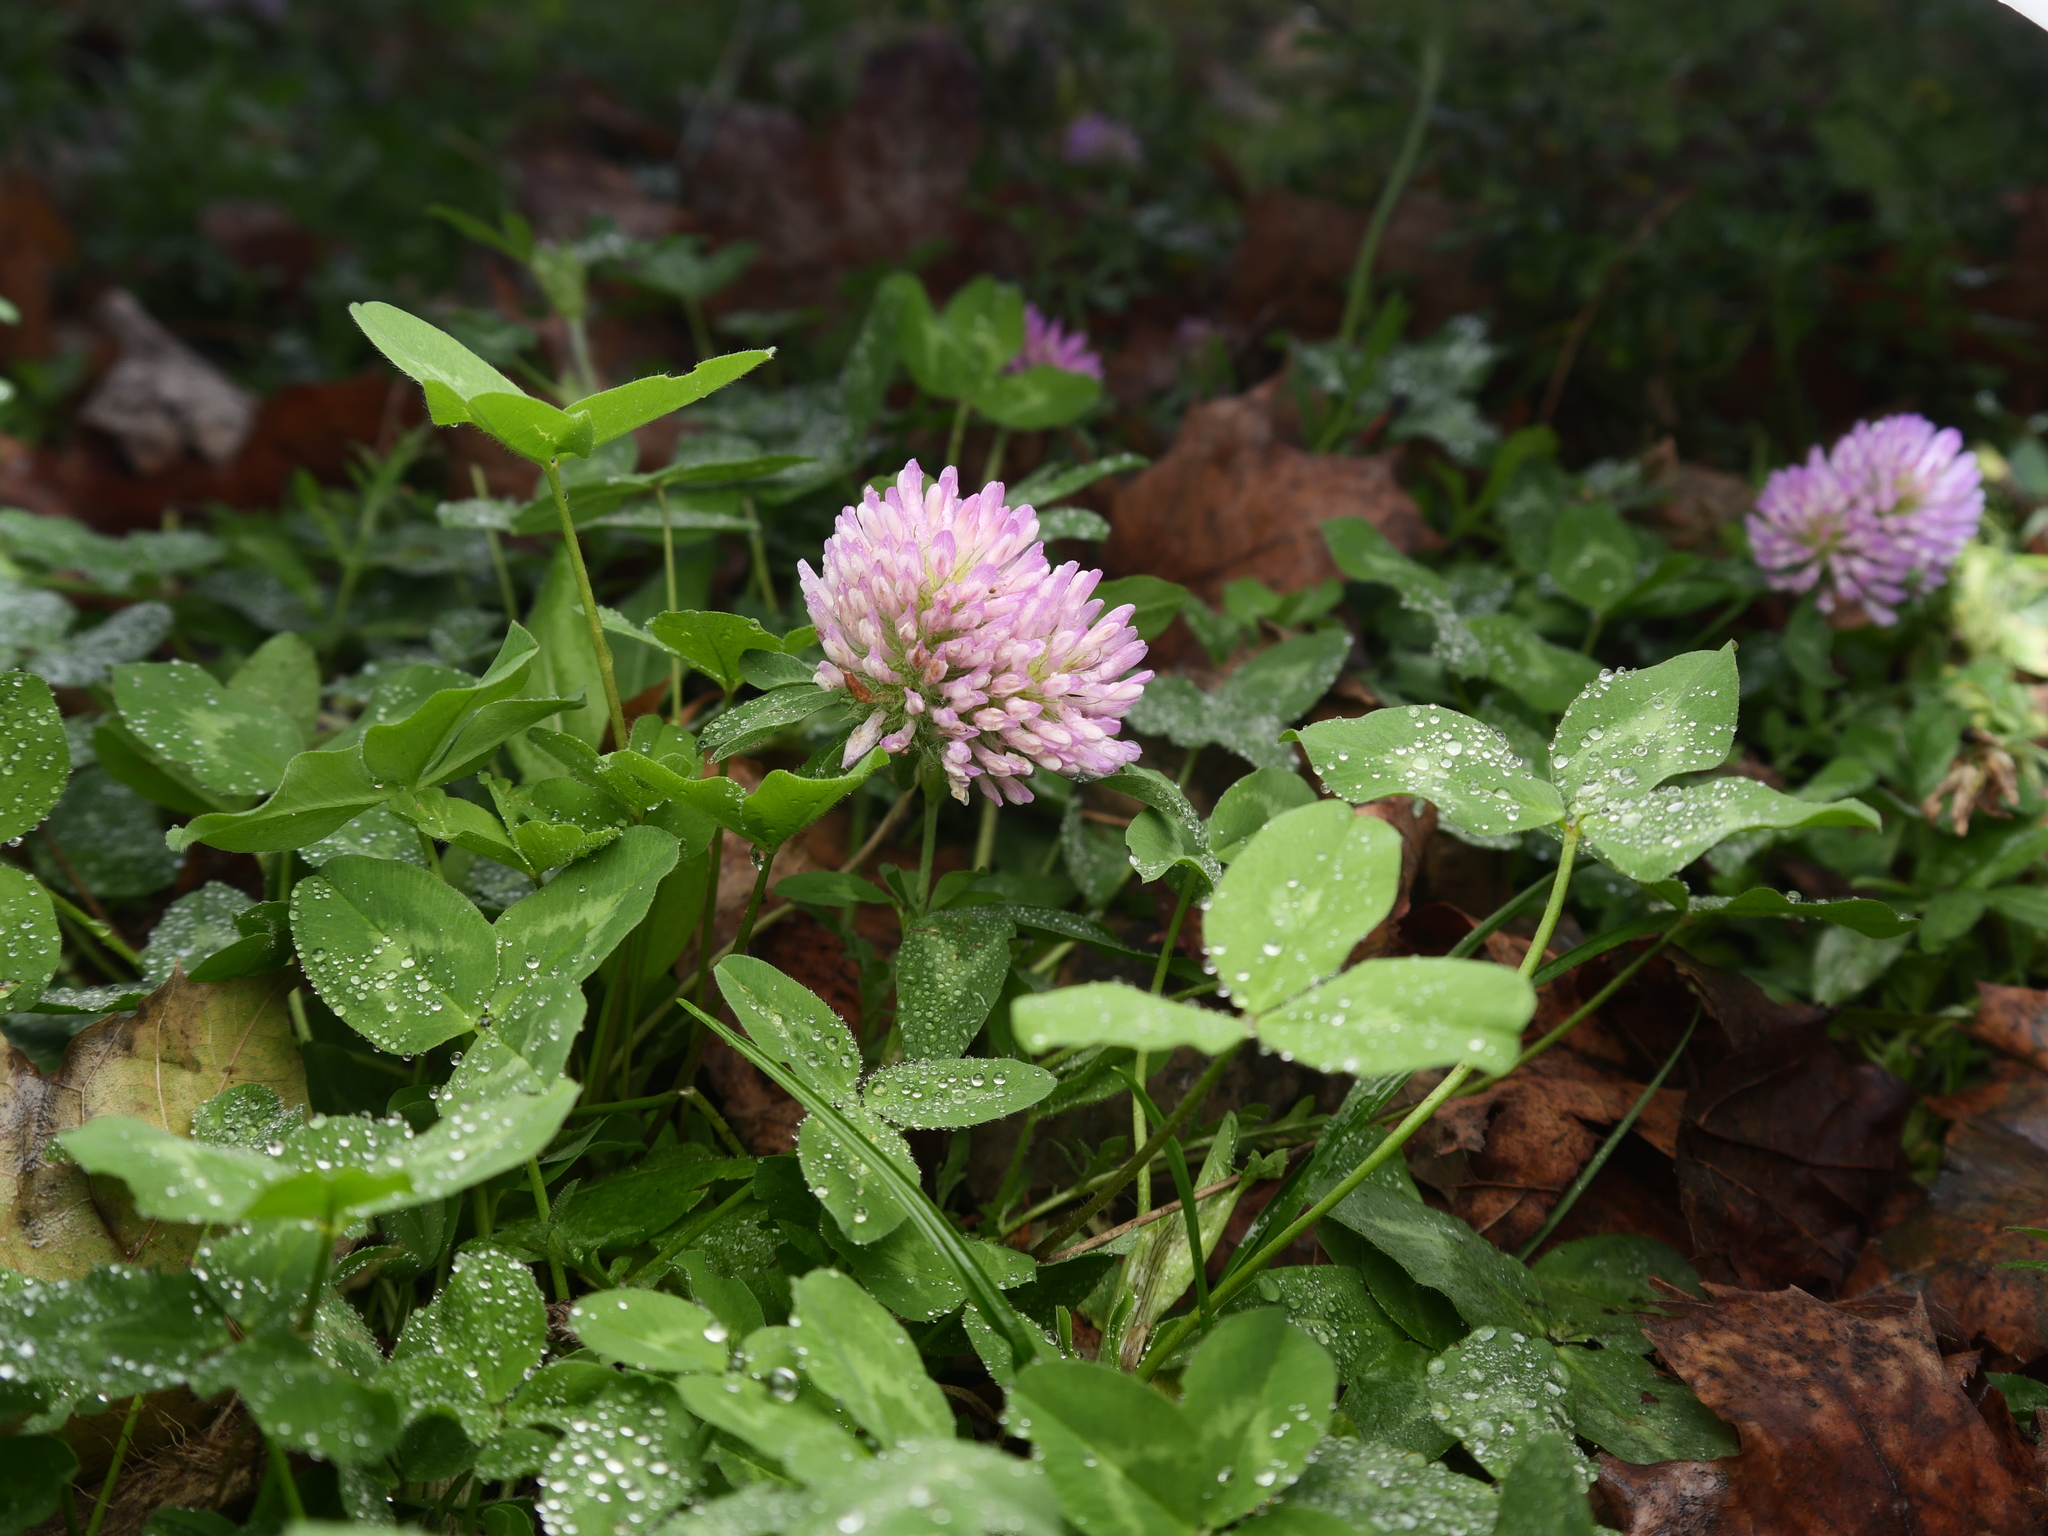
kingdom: Plantae
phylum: Tracheophyta
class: Magnoliopsida
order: Fabales
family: Fabaceae
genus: Trifolium
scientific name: Trifolium pratense
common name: Red clover
